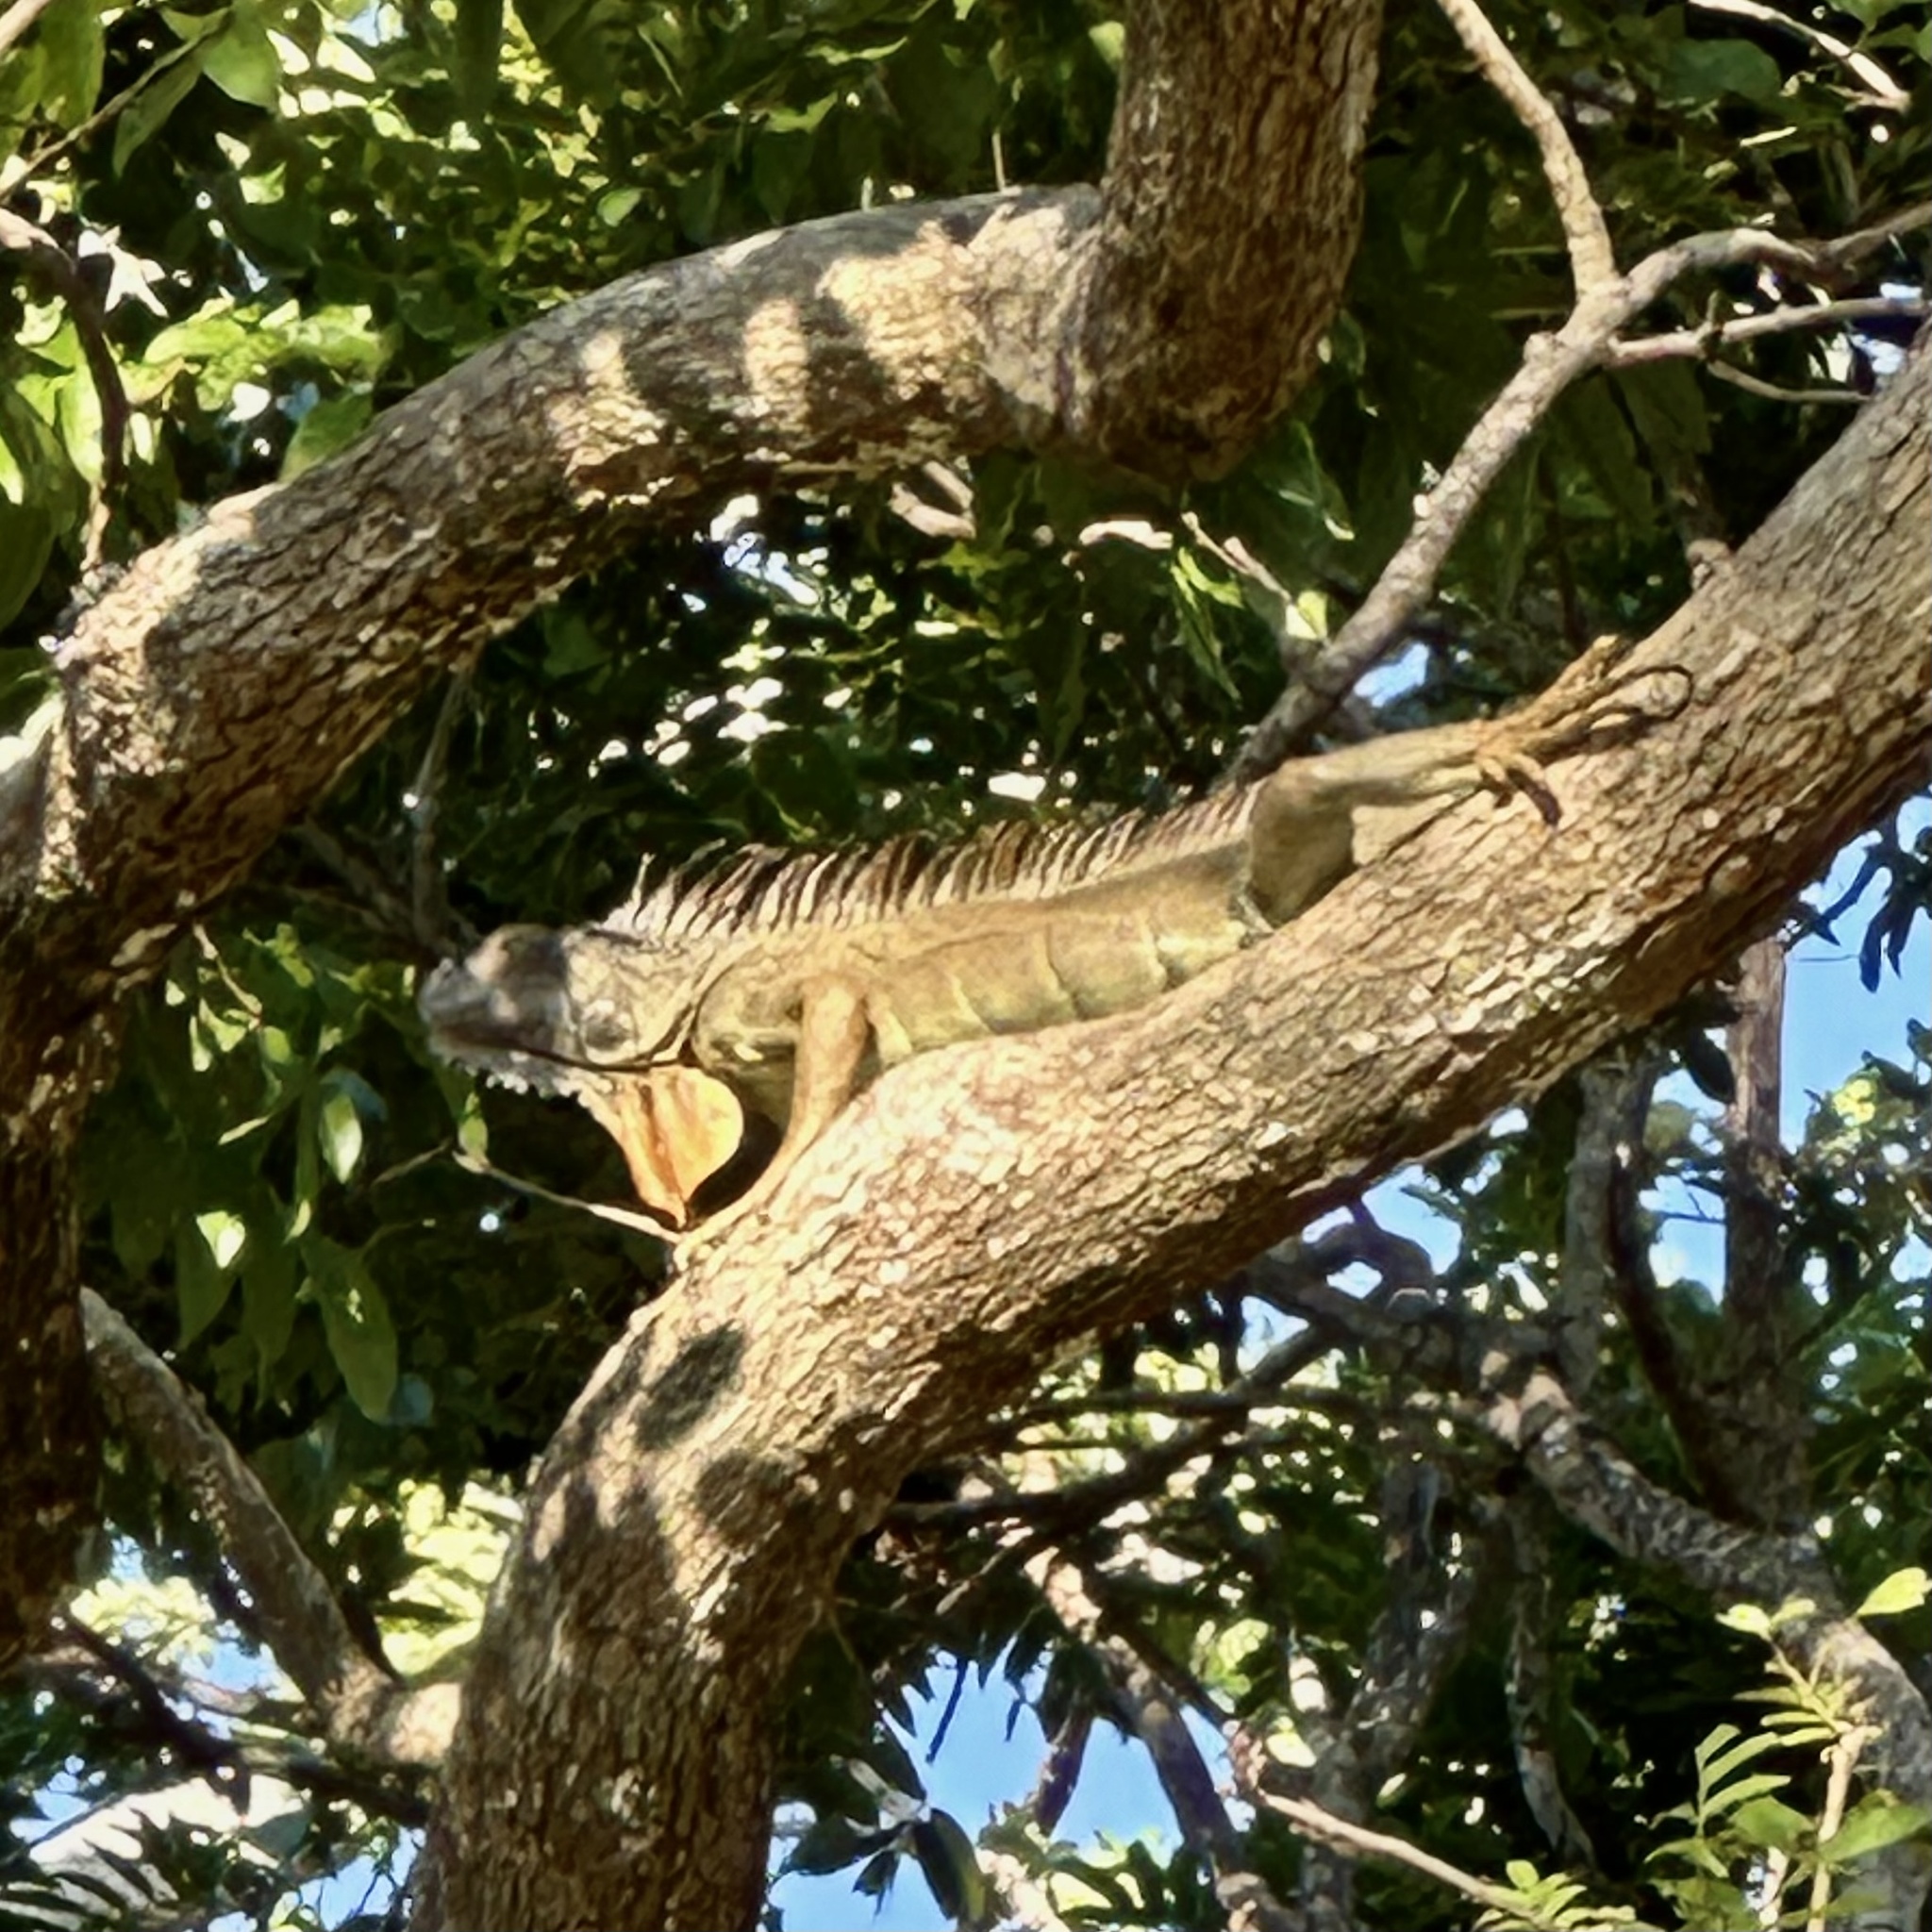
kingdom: Animalia
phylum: Chordata
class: Squamata
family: Iguanidae
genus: Iguana
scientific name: Iguana iguana
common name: Green iguana
